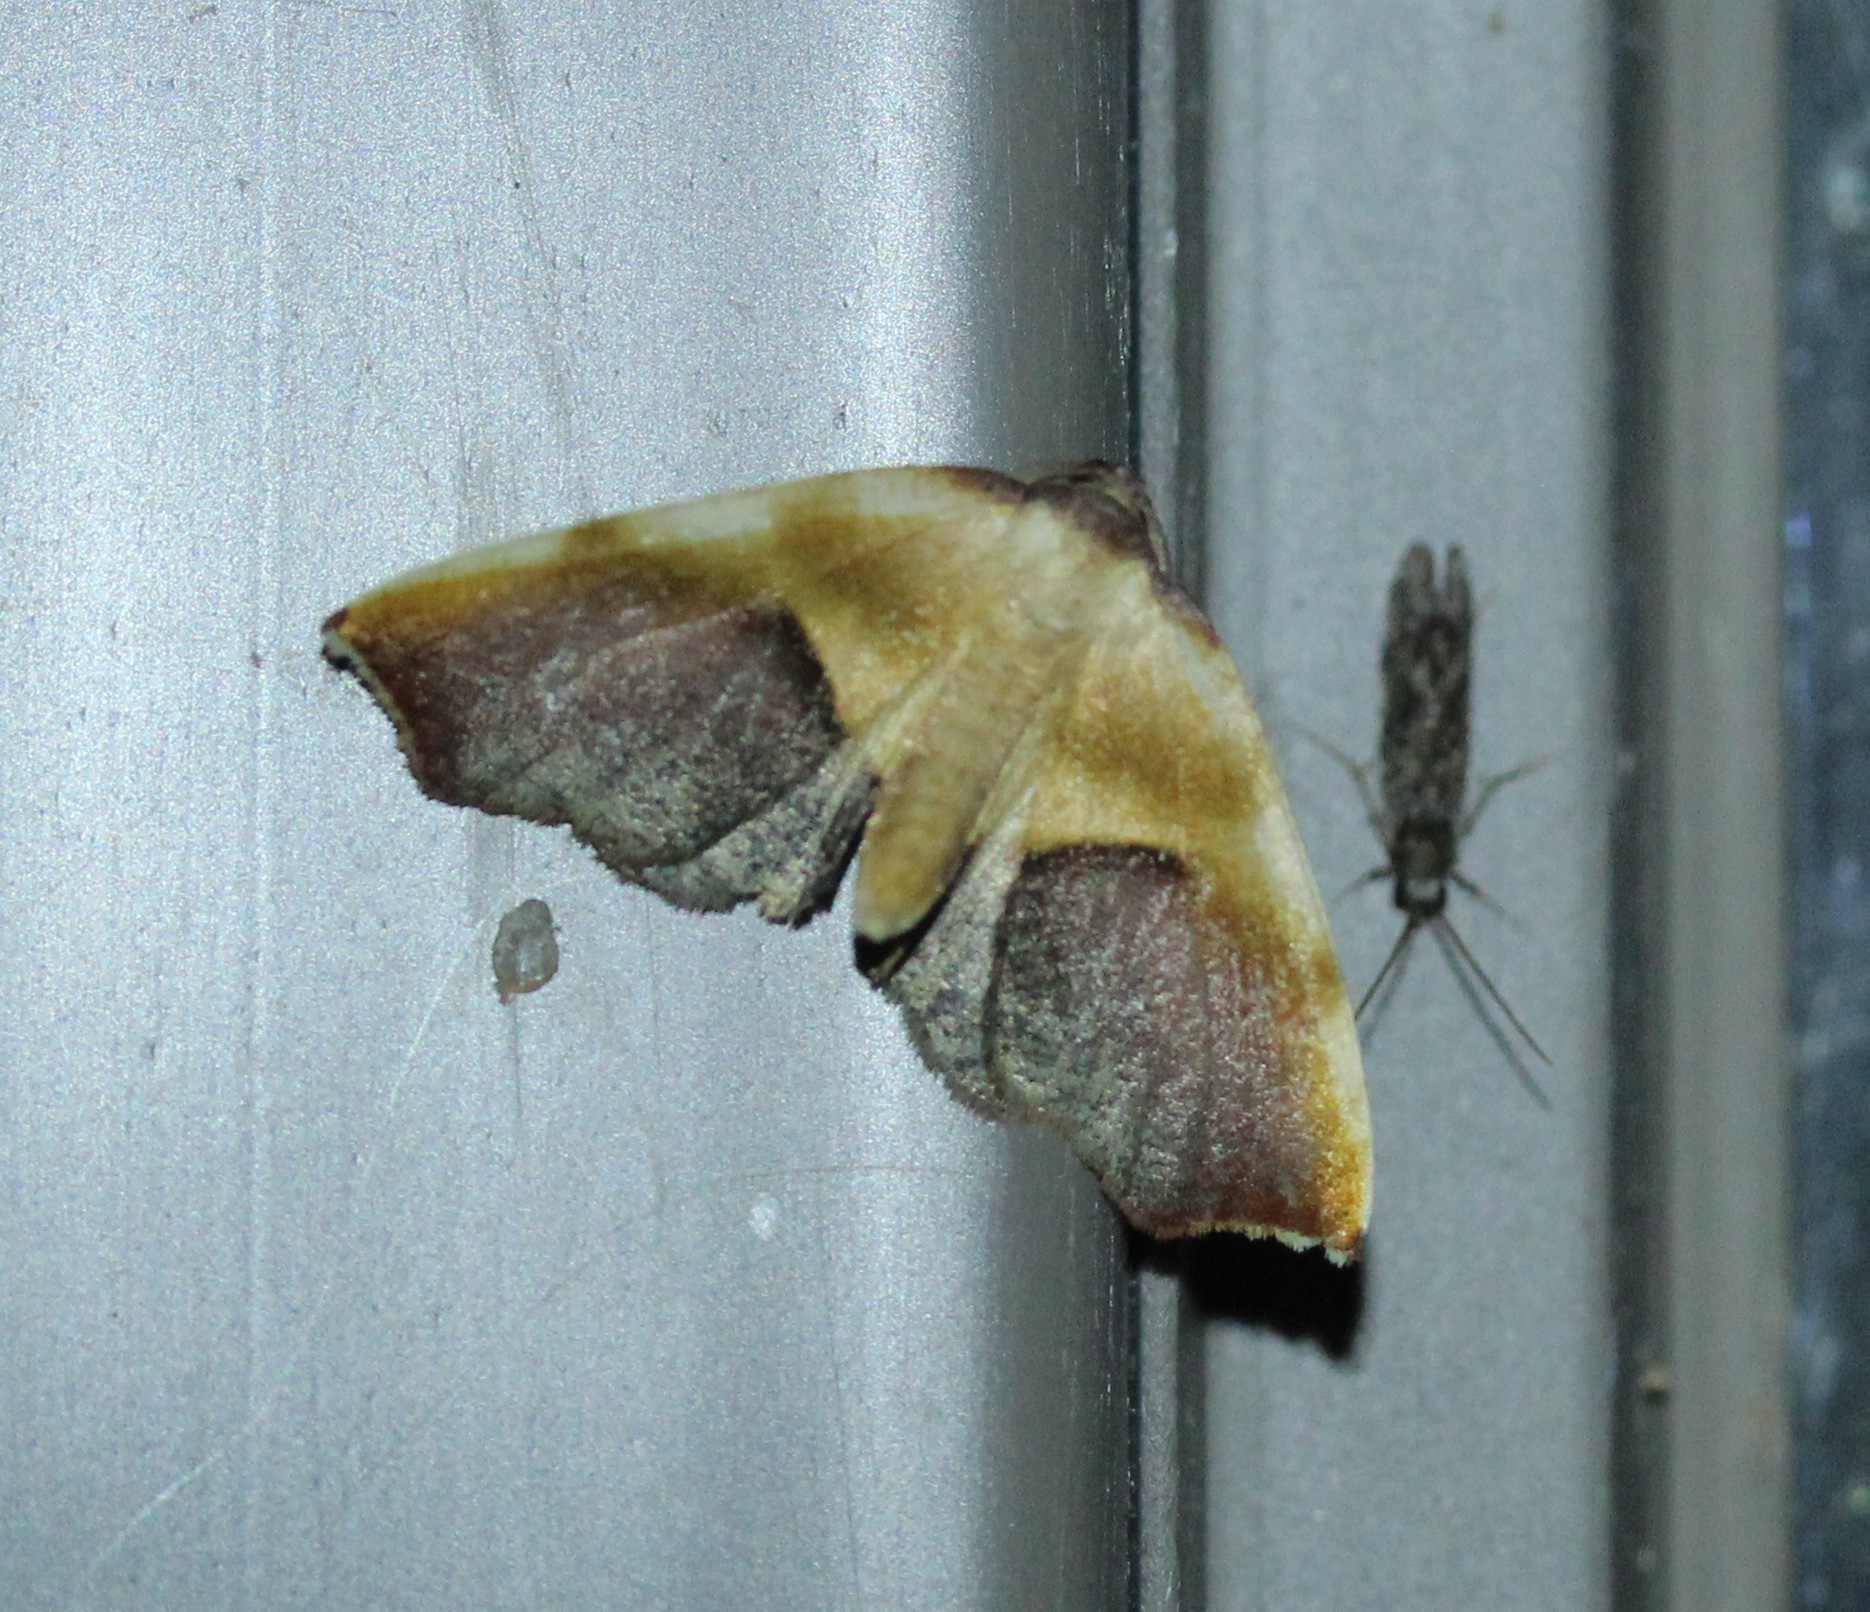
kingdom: Animalia
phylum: Arthropoda
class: Insecta
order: Lepidoptera
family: Geometridae
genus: Plagodis
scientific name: Plagodis kuetzingi
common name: Purple plagodis
